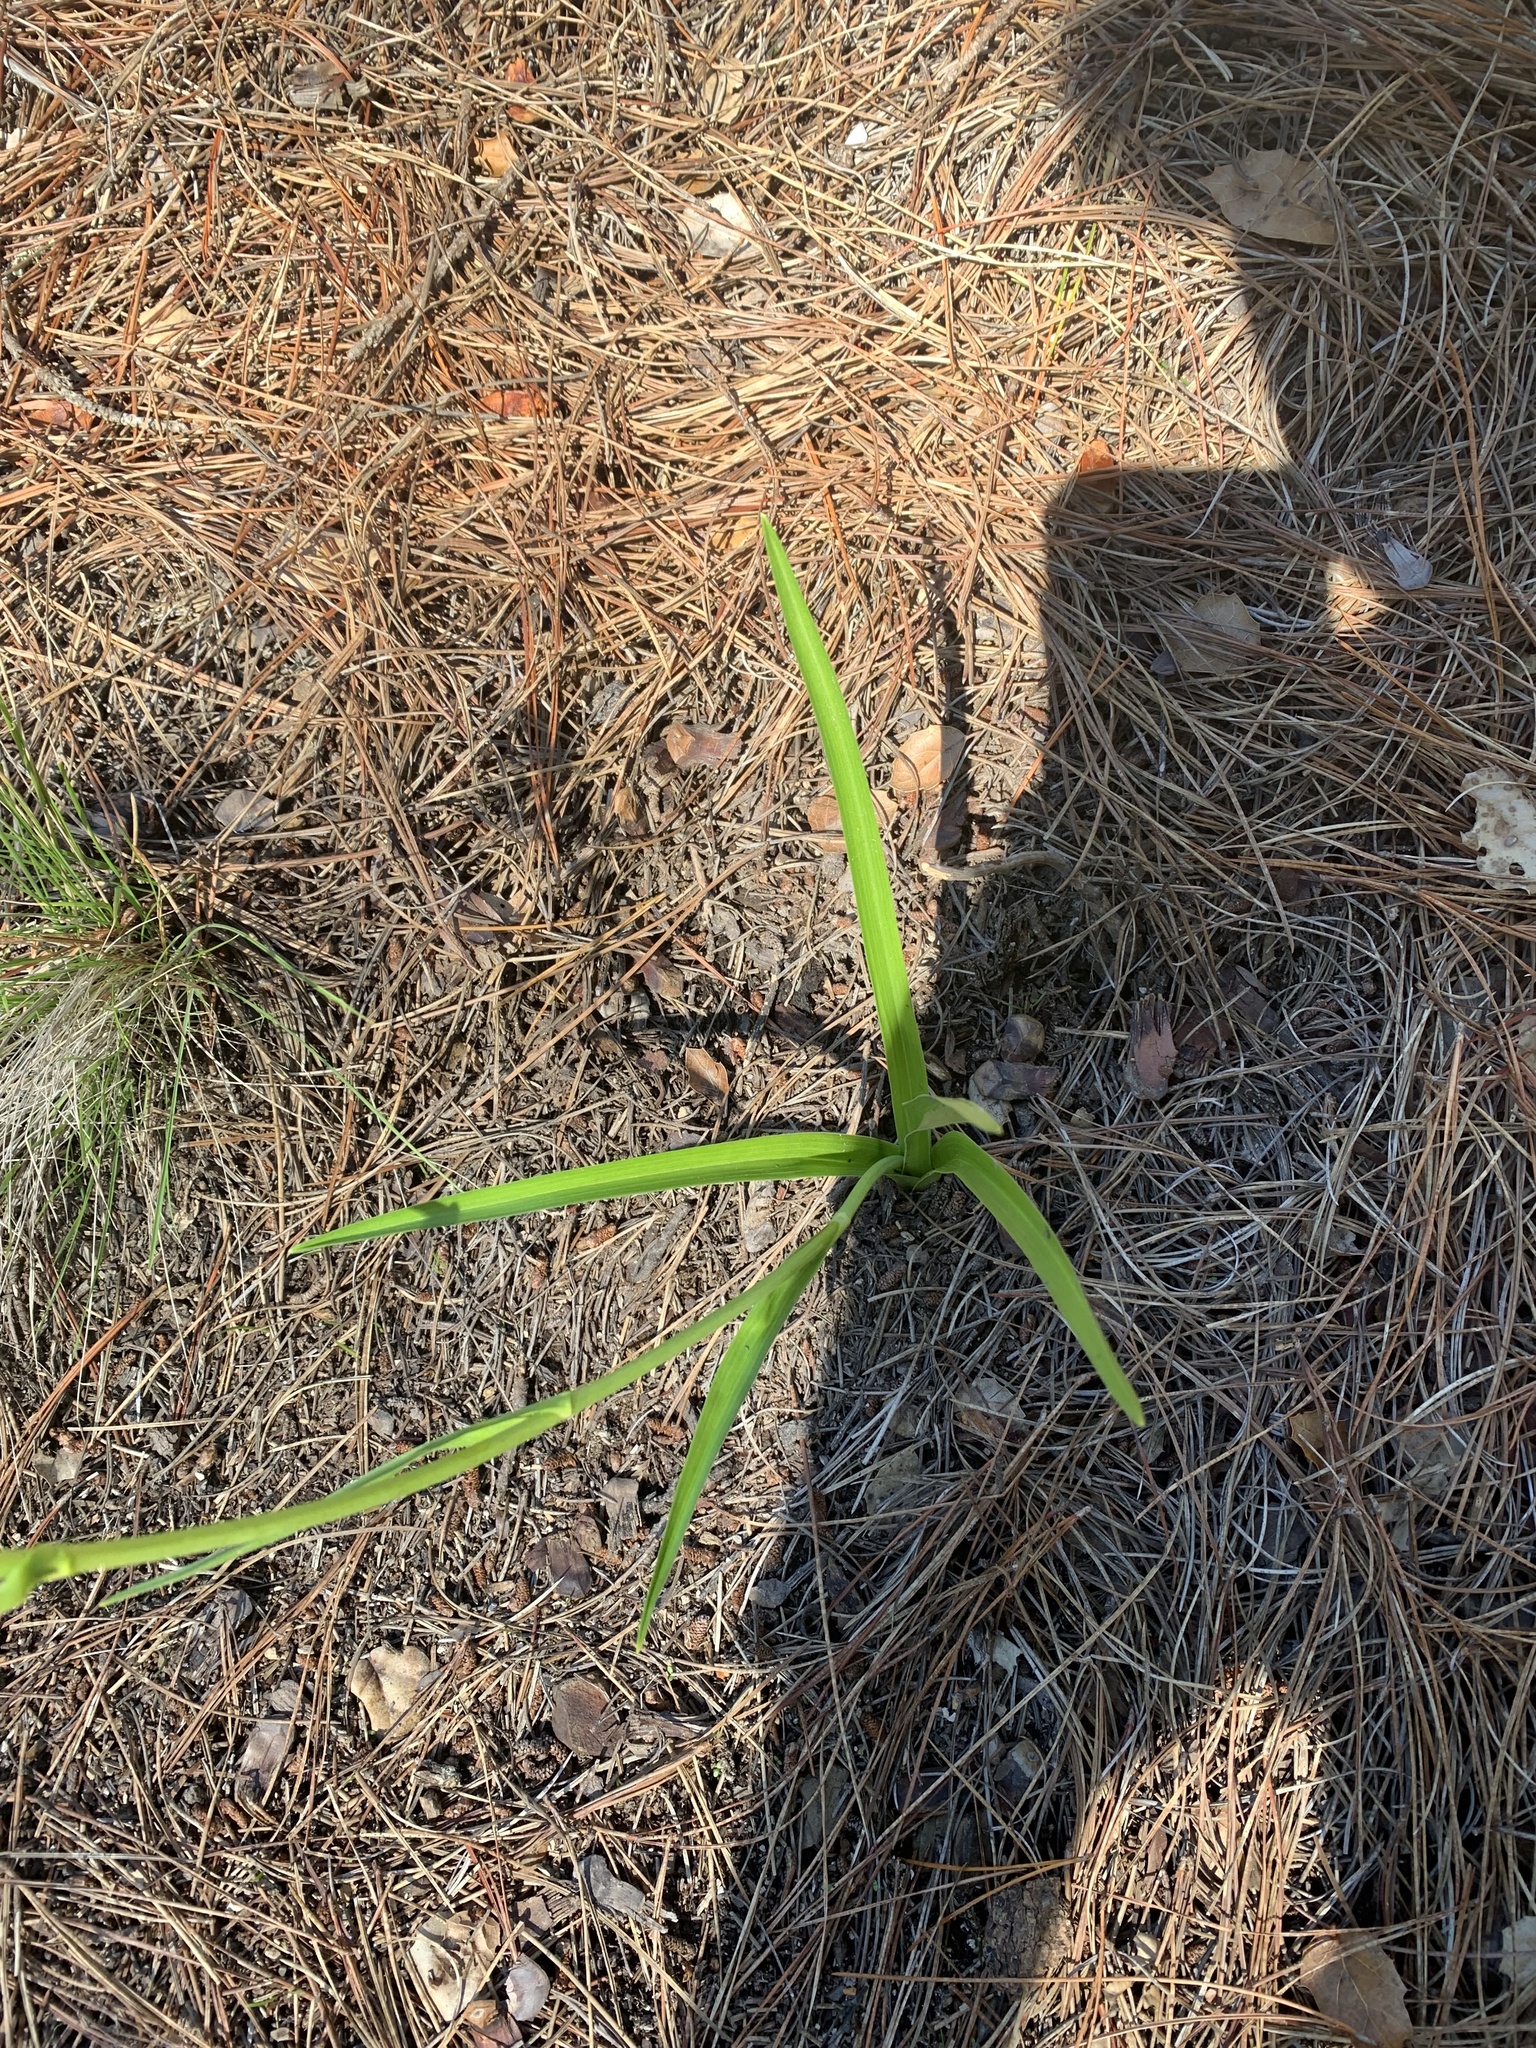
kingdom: Plantae
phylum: Tracheophyta
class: Liliopsida
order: Liliales
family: Melanthiaceae
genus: Toxicoscordion
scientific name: Toxicoscordion fremontii
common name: Fremont's death camas
